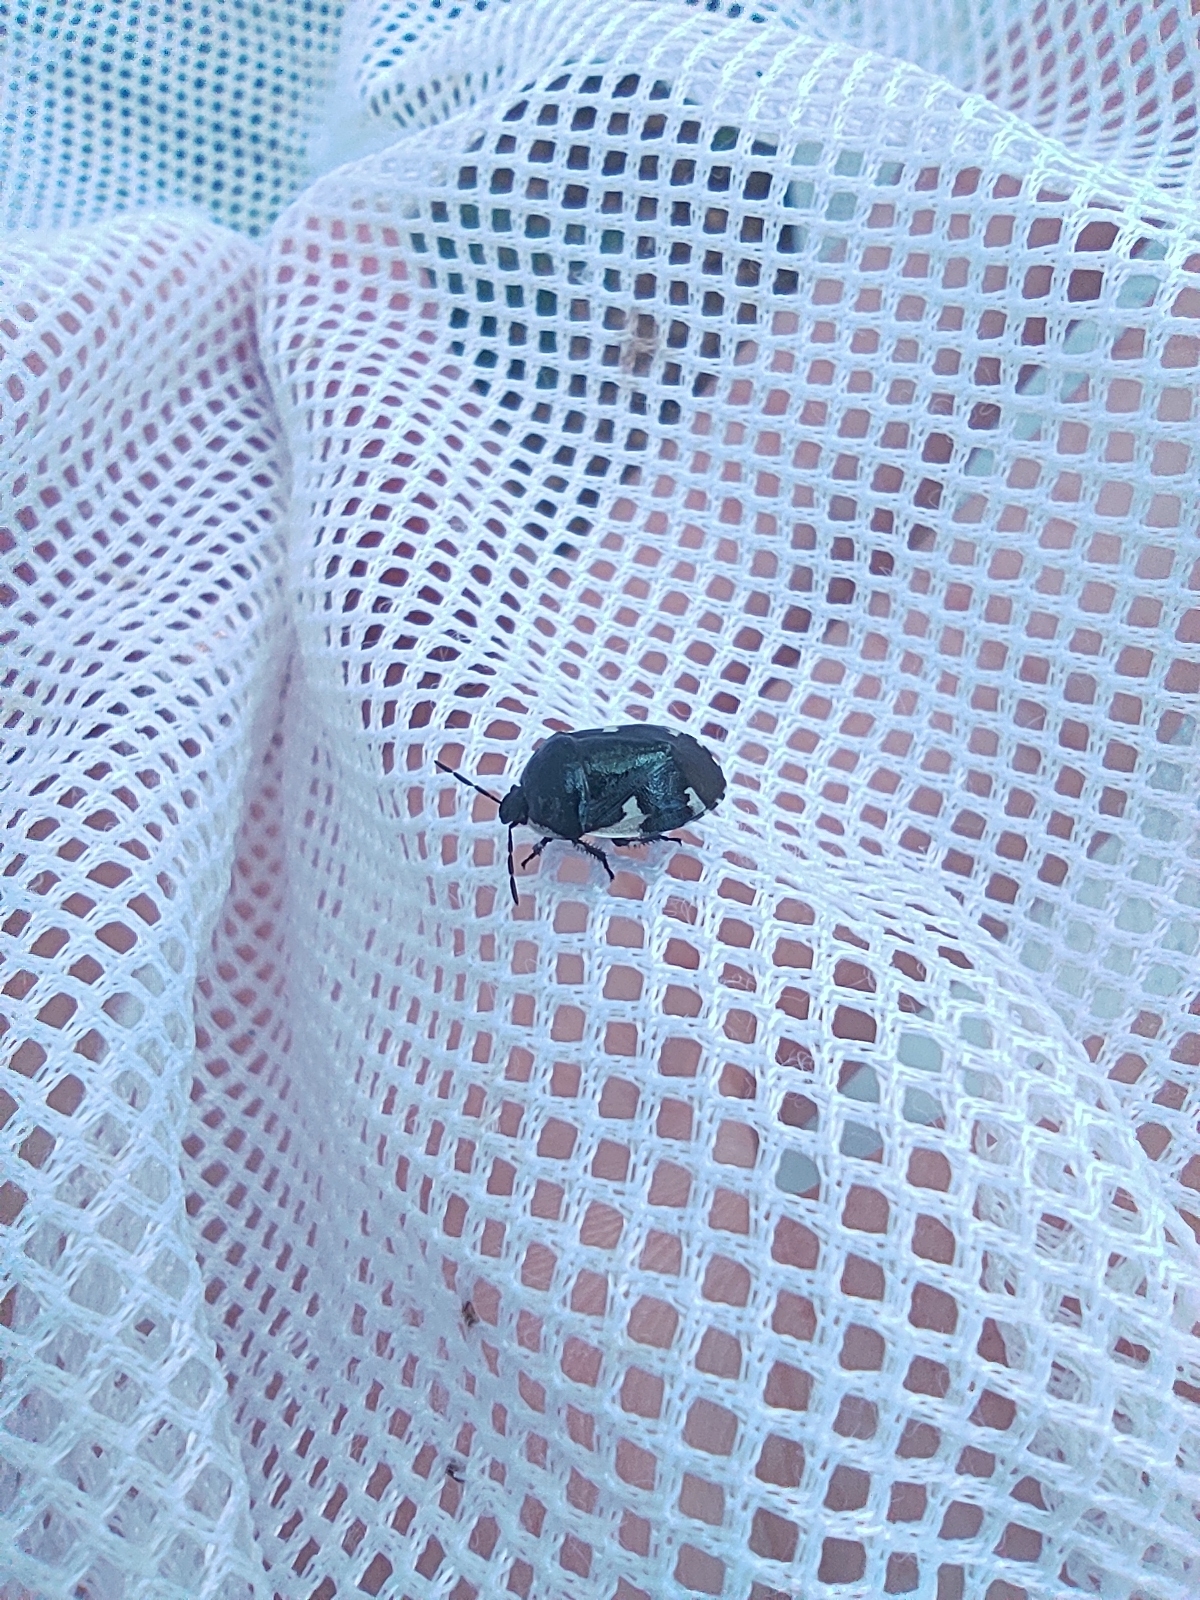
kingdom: Animalia
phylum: Arthropoda
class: Insecta
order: Hemiptera
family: Cydnidae
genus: Tritomegas
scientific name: Tritomegas sexmaculatus
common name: Rambur's pied shieldbug
